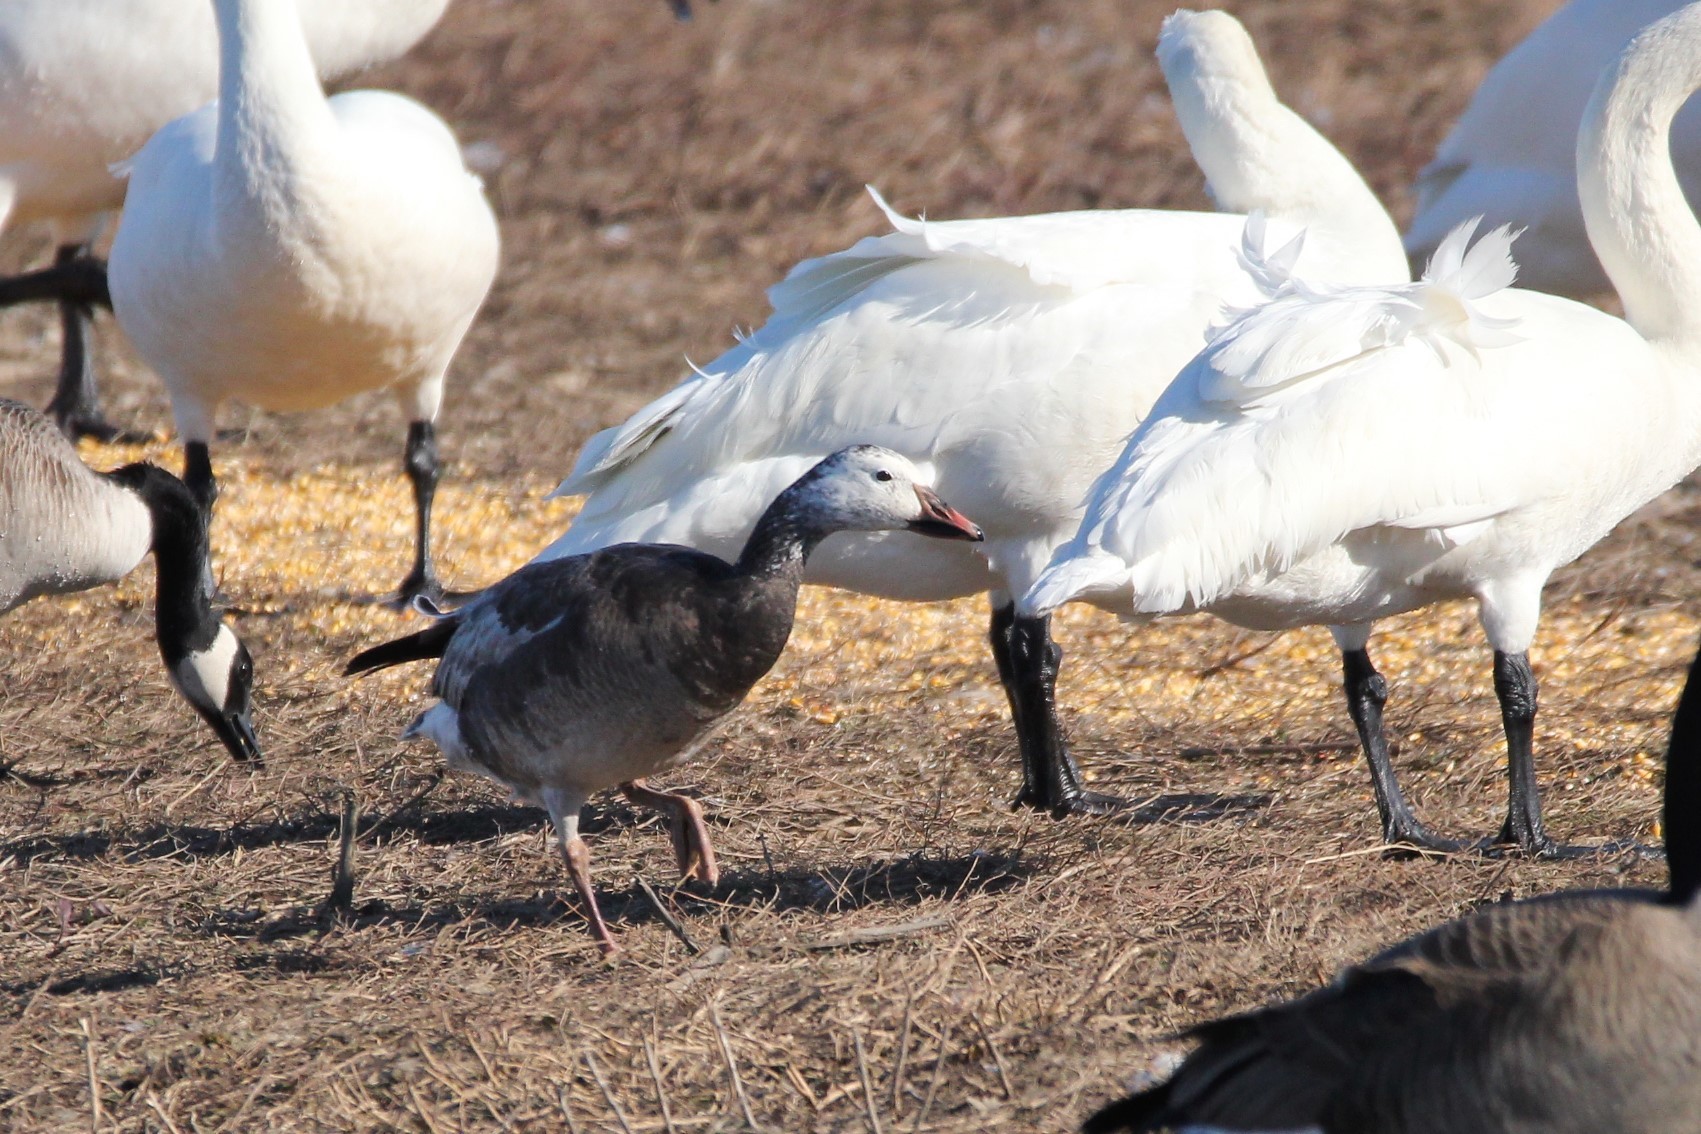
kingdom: Animalia
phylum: Chordata
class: Aves
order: Anseriformes
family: Anatidae
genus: Anser
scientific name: Anser caerulescens
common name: Snow goose
